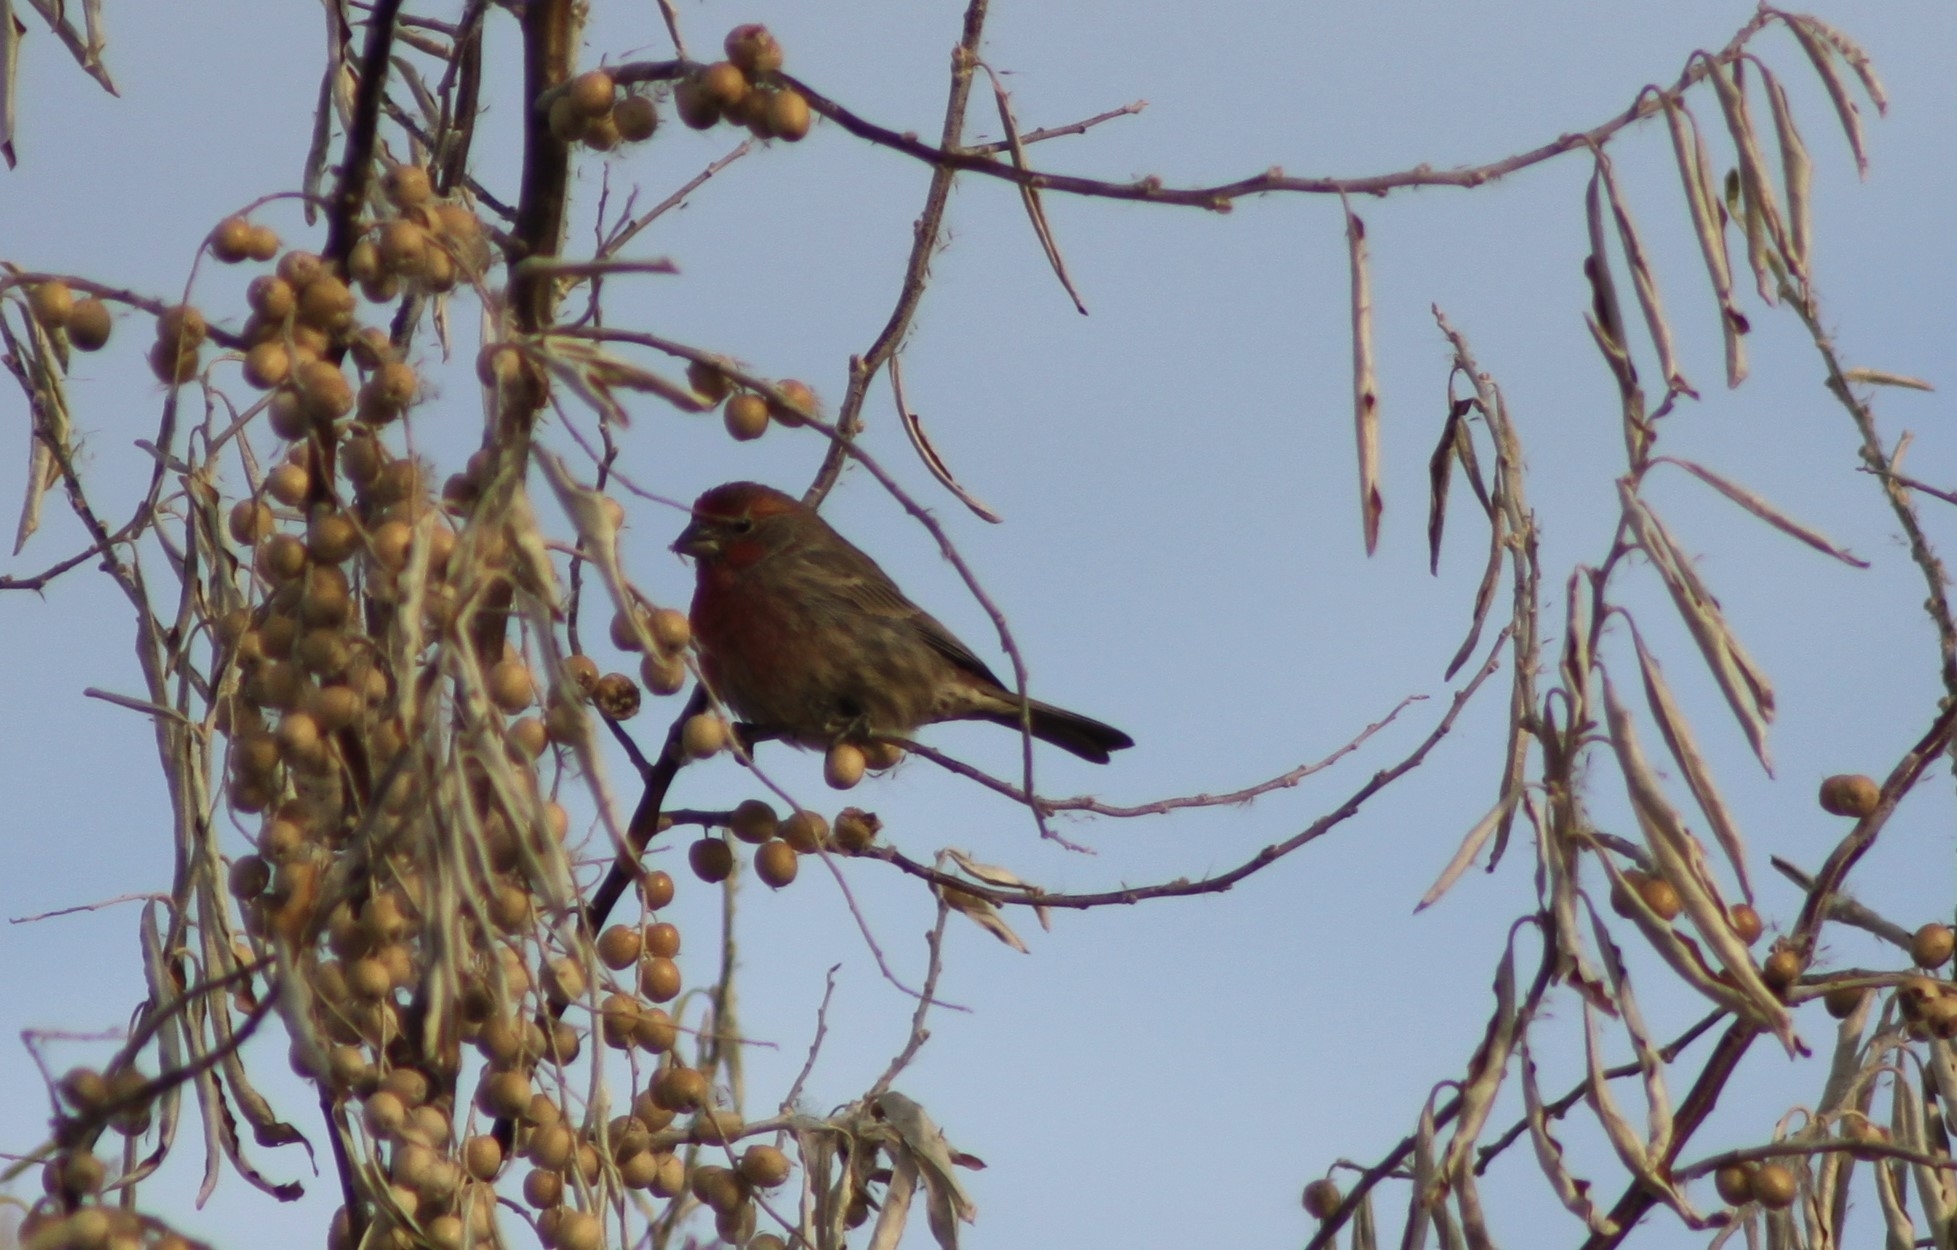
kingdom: Animalia
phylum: Chordata
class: Aves
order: Passeriformes
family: Fringillidae
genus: Haemorhous
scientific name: Haemorhous mexicanus
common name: House finch
